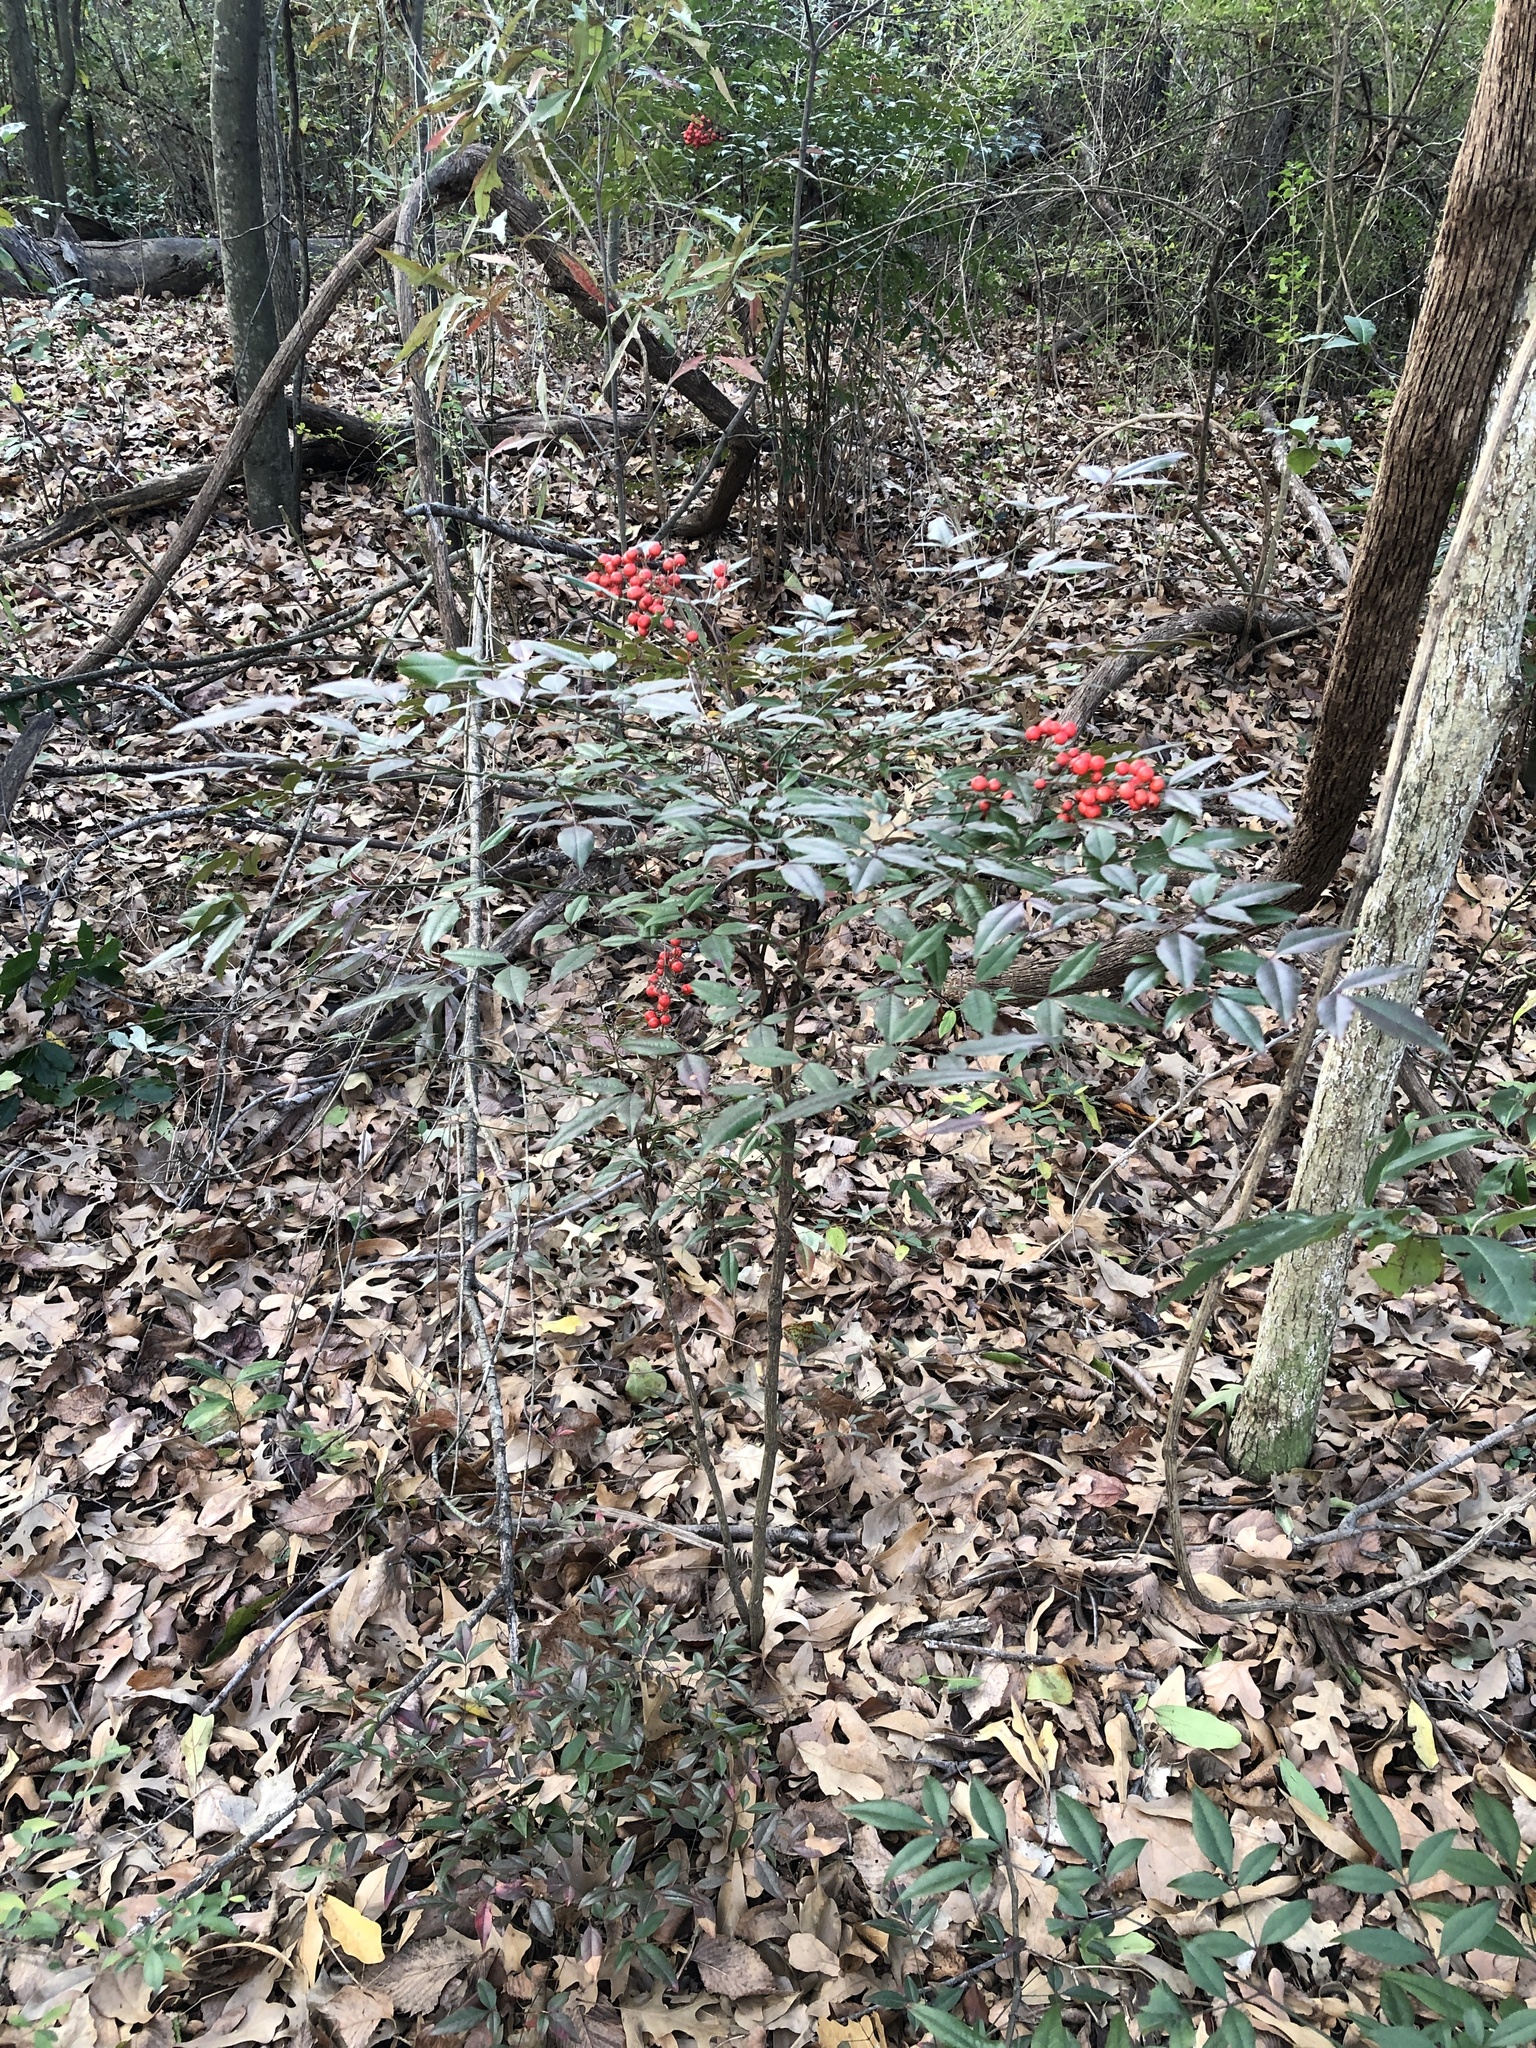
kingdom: Plantae
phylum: Tracheophyta
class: Magnoliopsida
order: Ranunculales
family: Berberidaceae
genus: Nandina
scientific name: Nandina domestica
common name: Sacred bamboo
